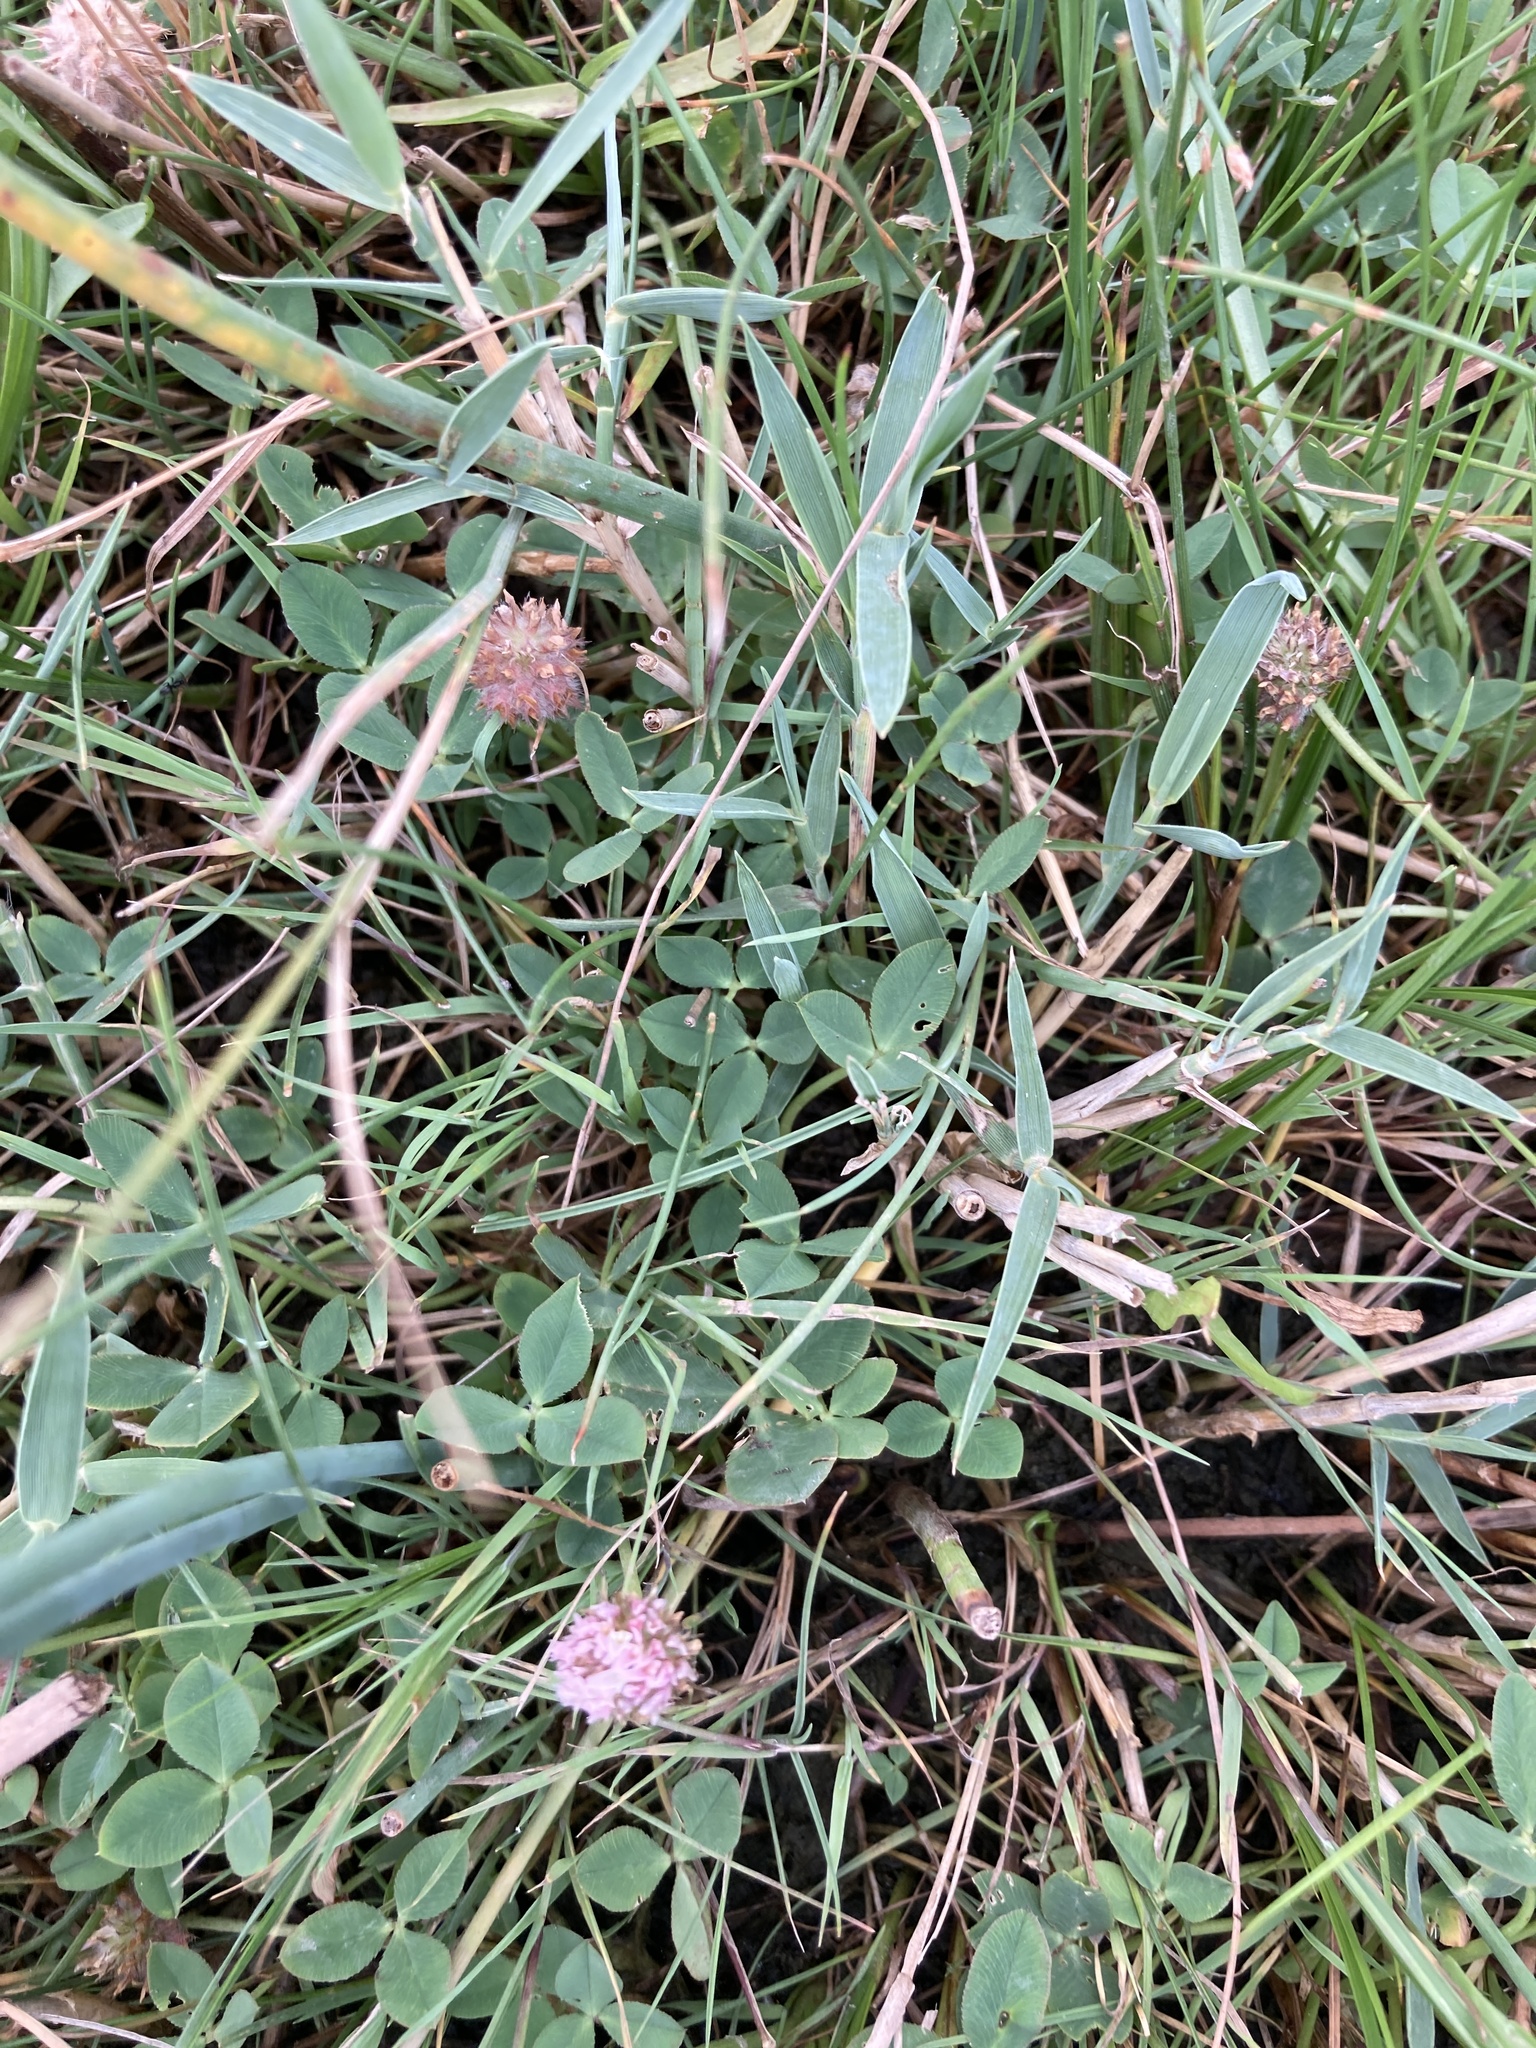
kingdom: Plantae
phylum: Tracheophyta
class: Magnoliopsida
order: Fabales
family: Fabaceae
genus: Trifolium
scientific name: Trifolium fragiferum
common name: Strawberry clover
